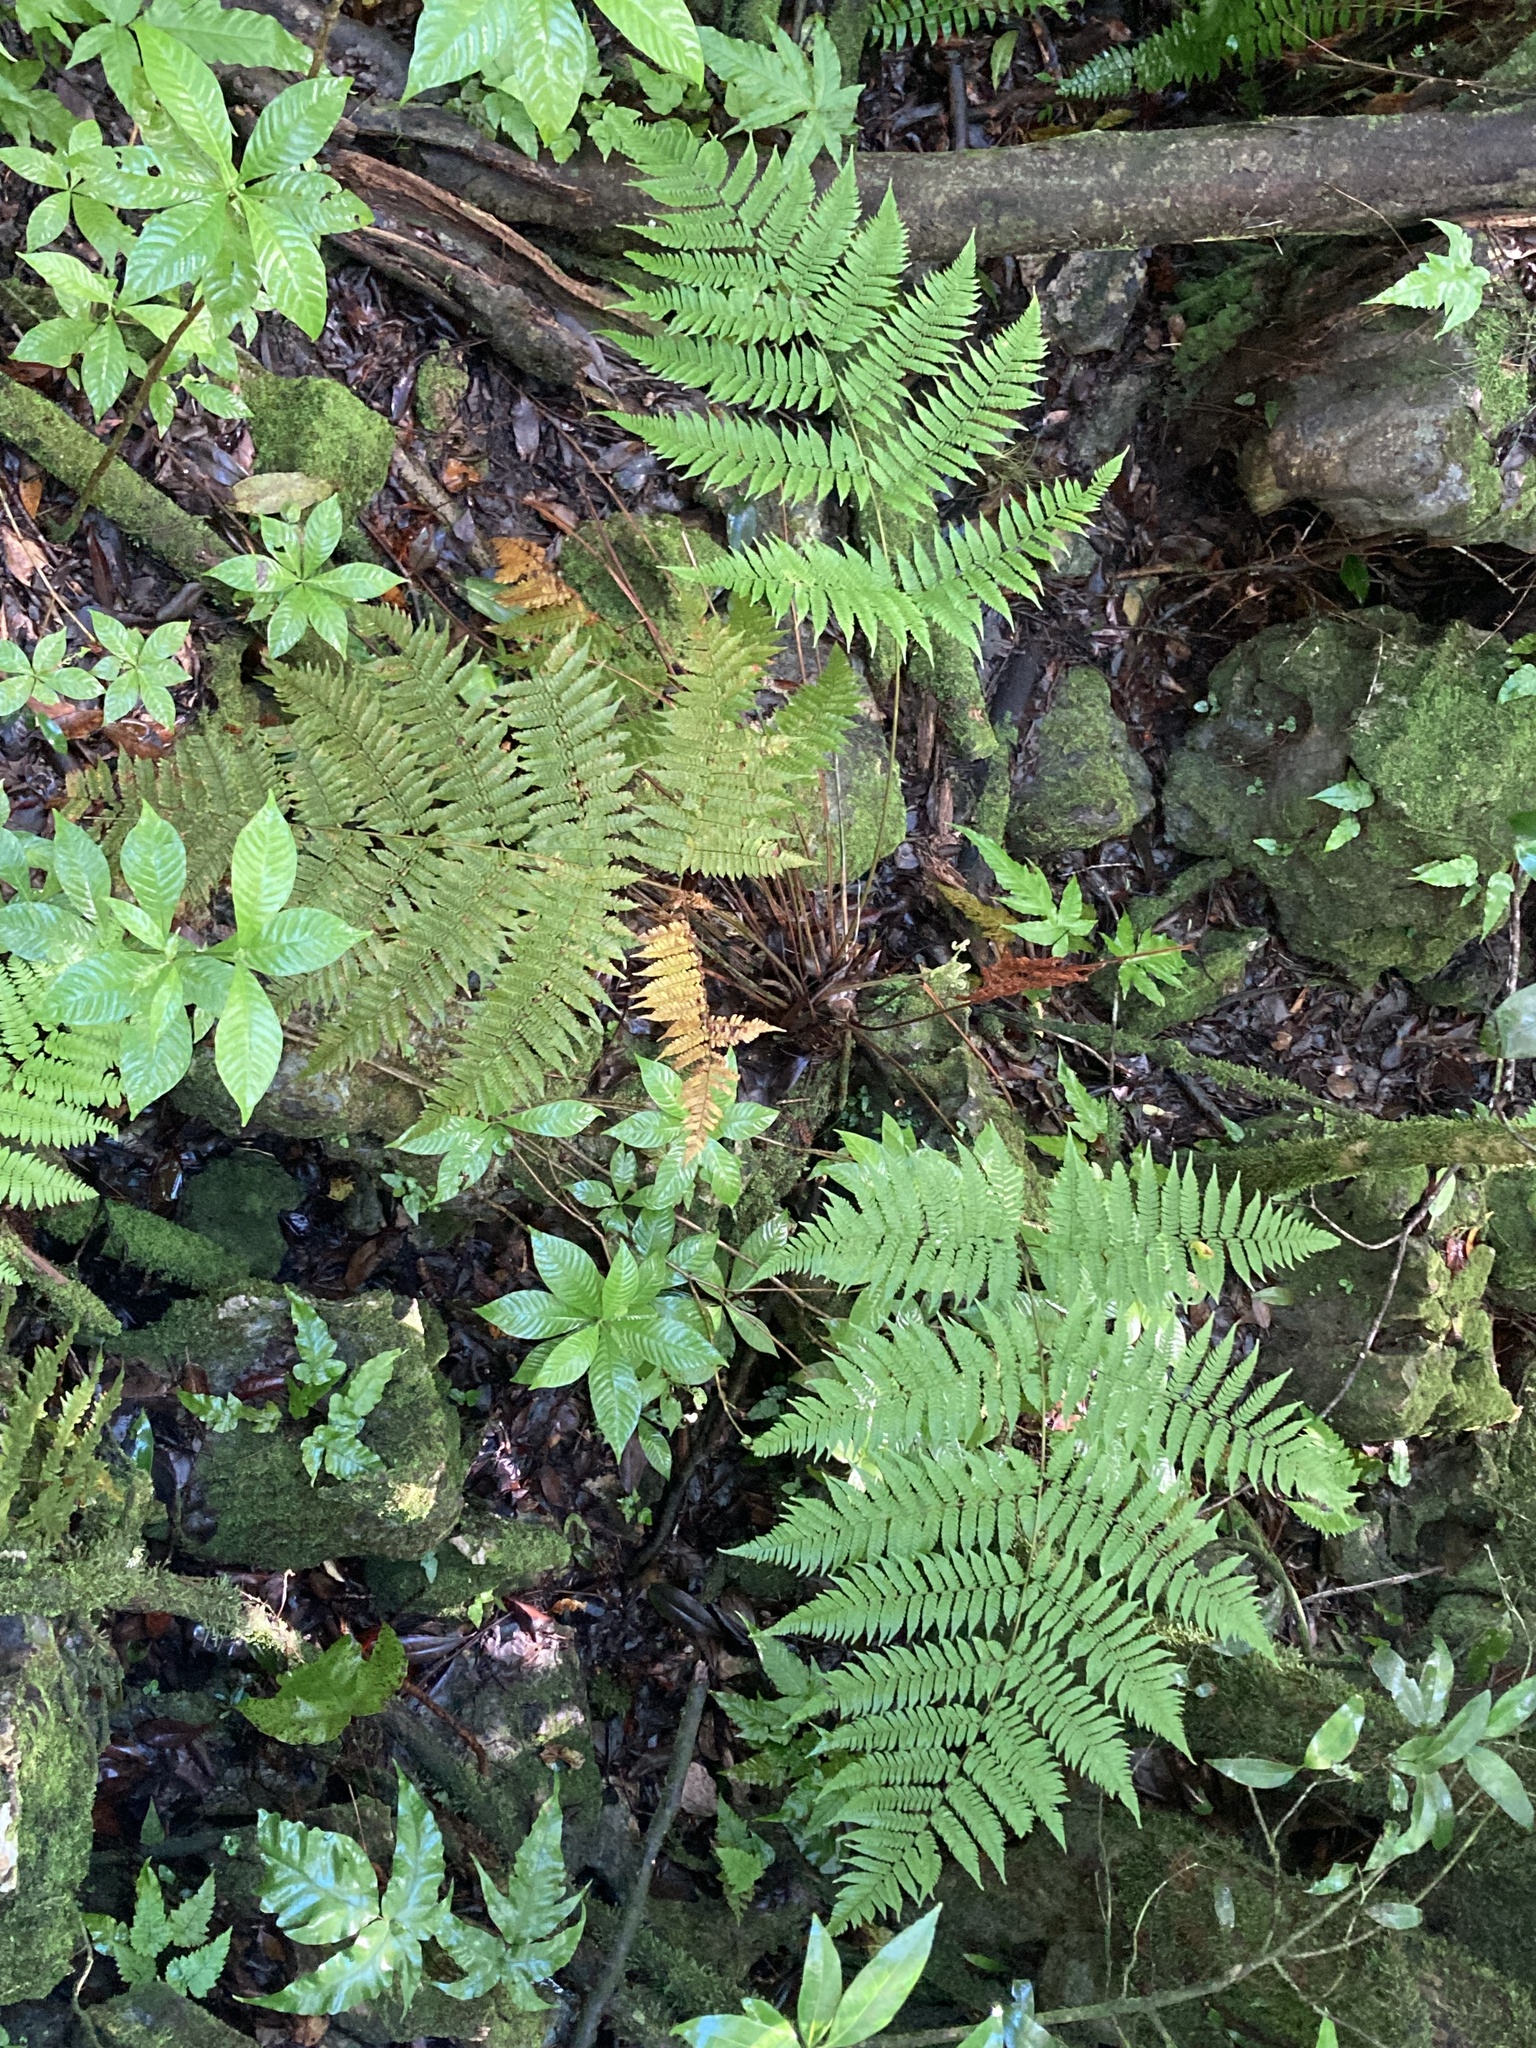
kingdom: Plantae
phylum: Tracheophyta
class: Polypodiopsida
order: Polypodiales
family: Dryopteridaceae
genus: Ctenitis
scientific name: Ctenitis sloanei
